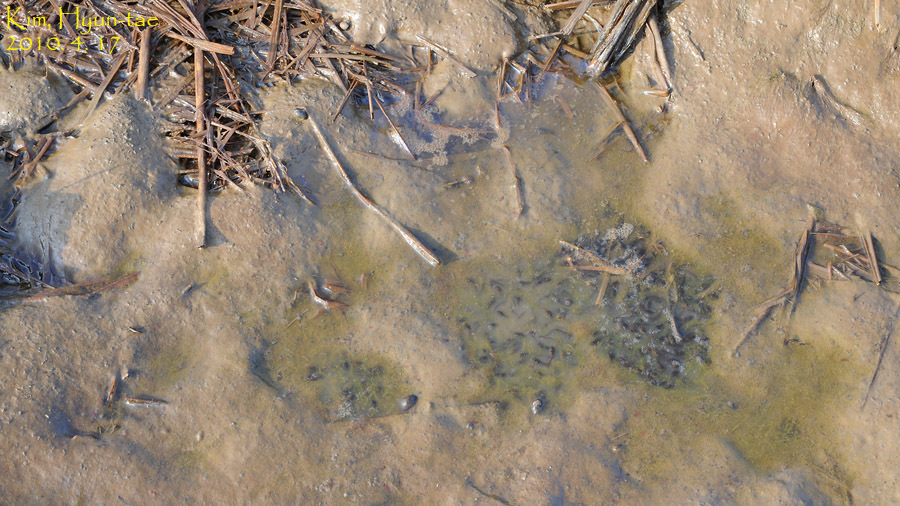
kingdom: Animalia
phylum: Chordata
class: Amphibia
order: Anura
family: Ranidae
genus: Rana
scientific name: Rana coreana
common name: Korean brown frog
